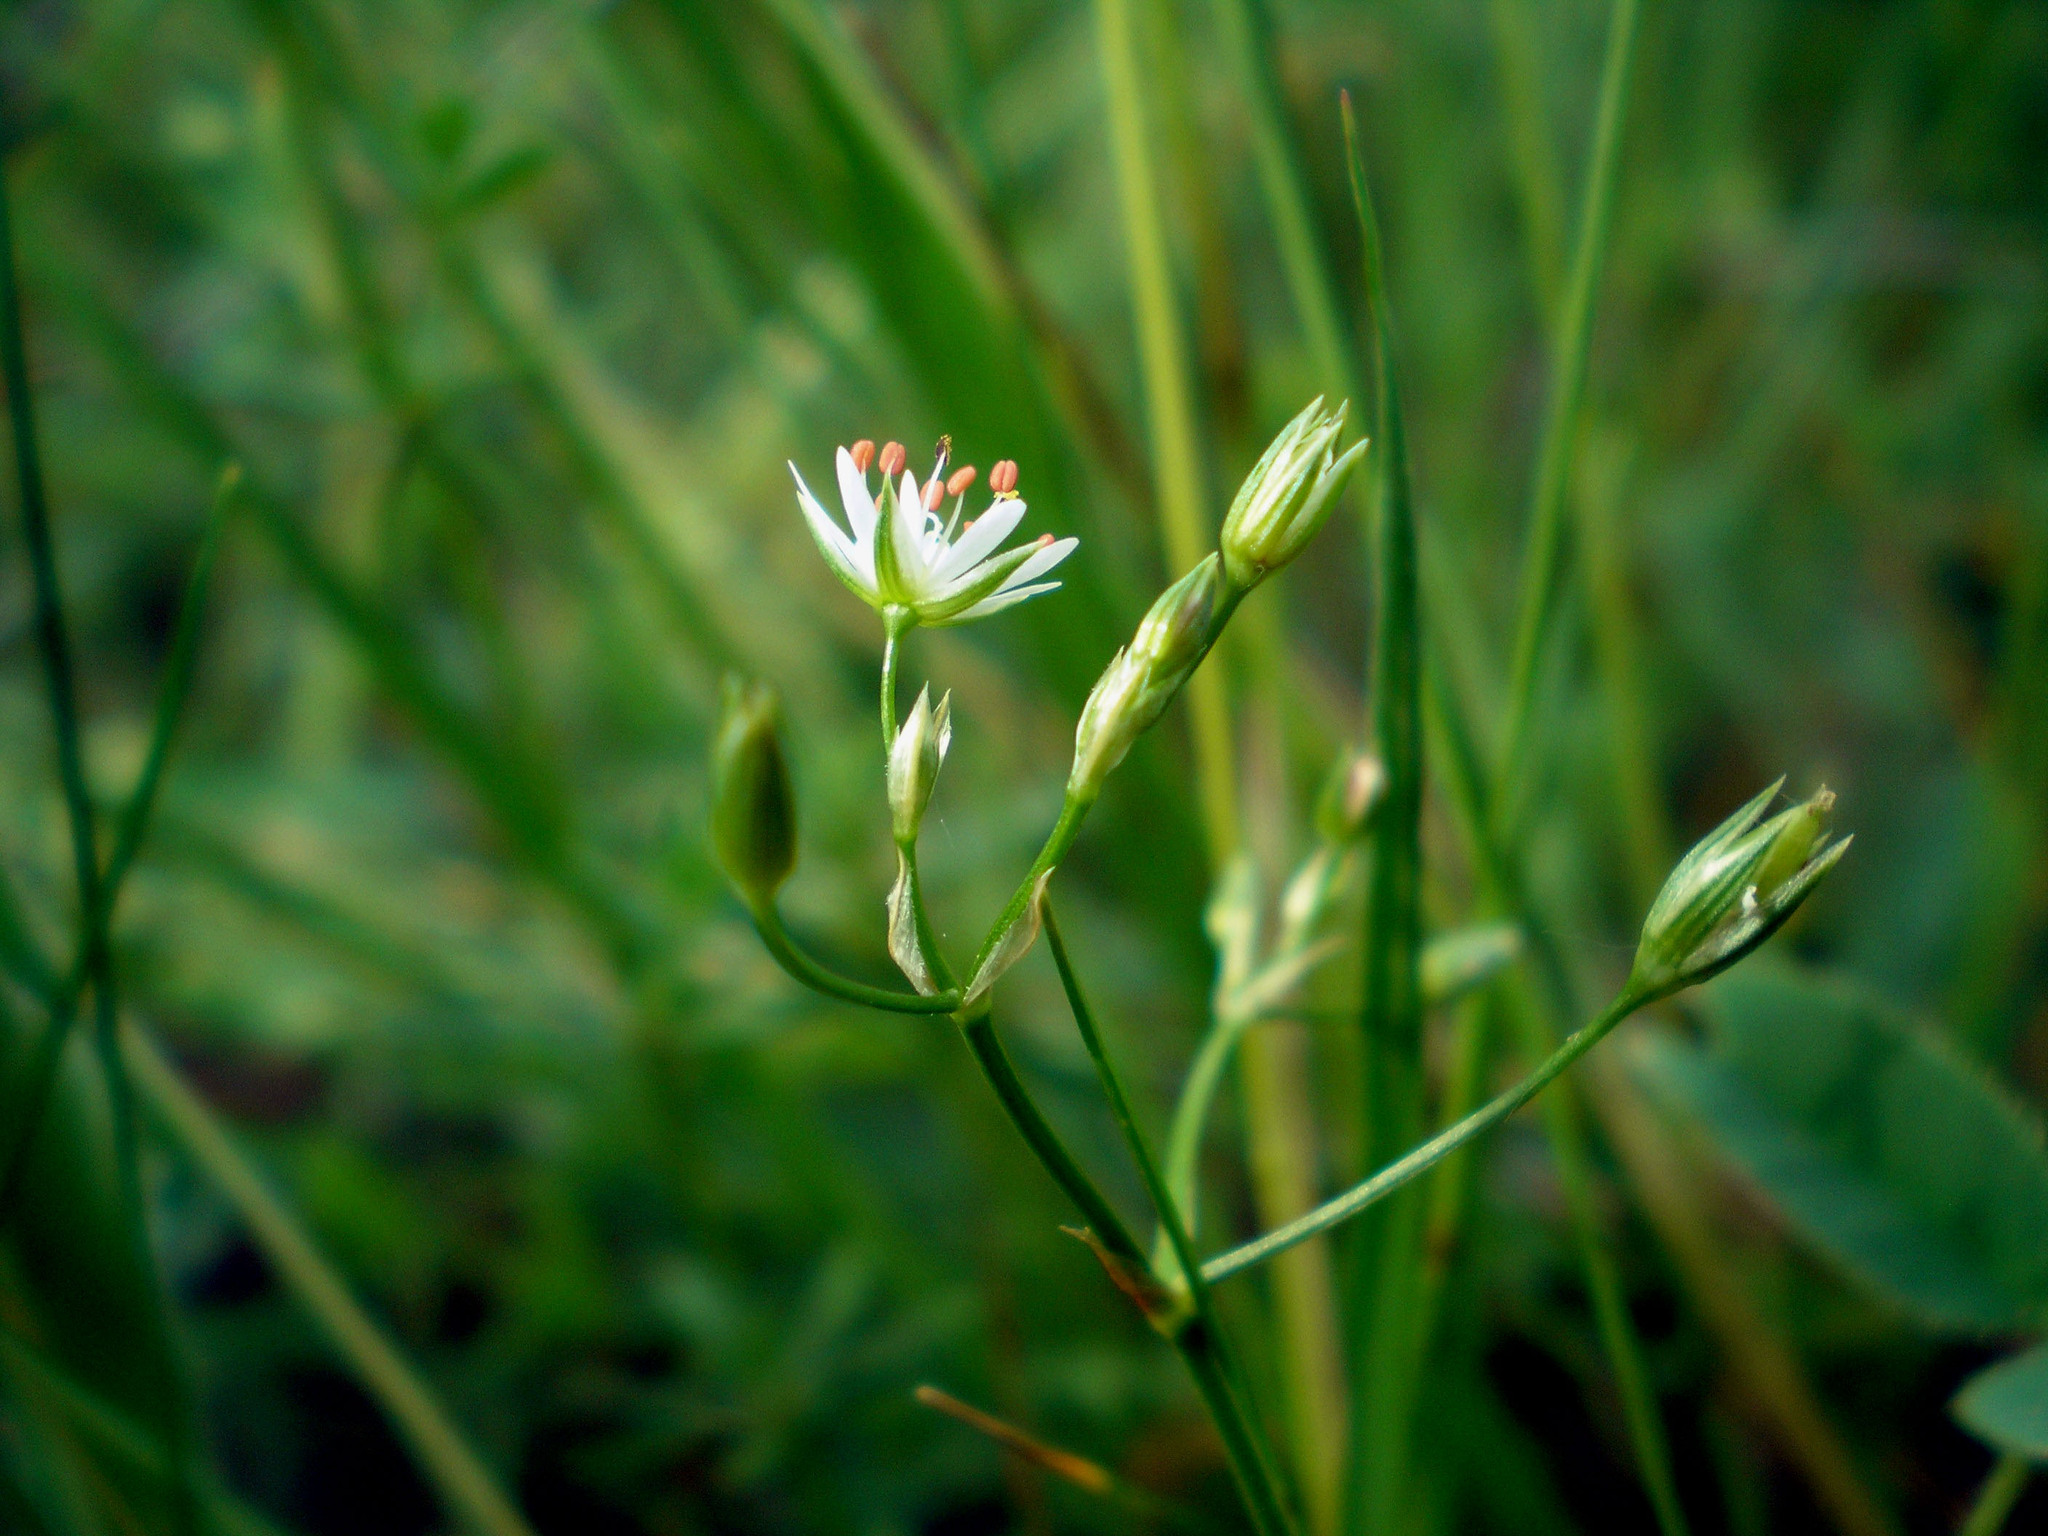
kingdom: Plantae
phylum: Tracheophyta
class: Magnoliopsida
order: Caryophyllales
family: Caryophyllaceae
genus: Stellaria
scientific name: Stellaria graminea
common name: Grass-like starwort
